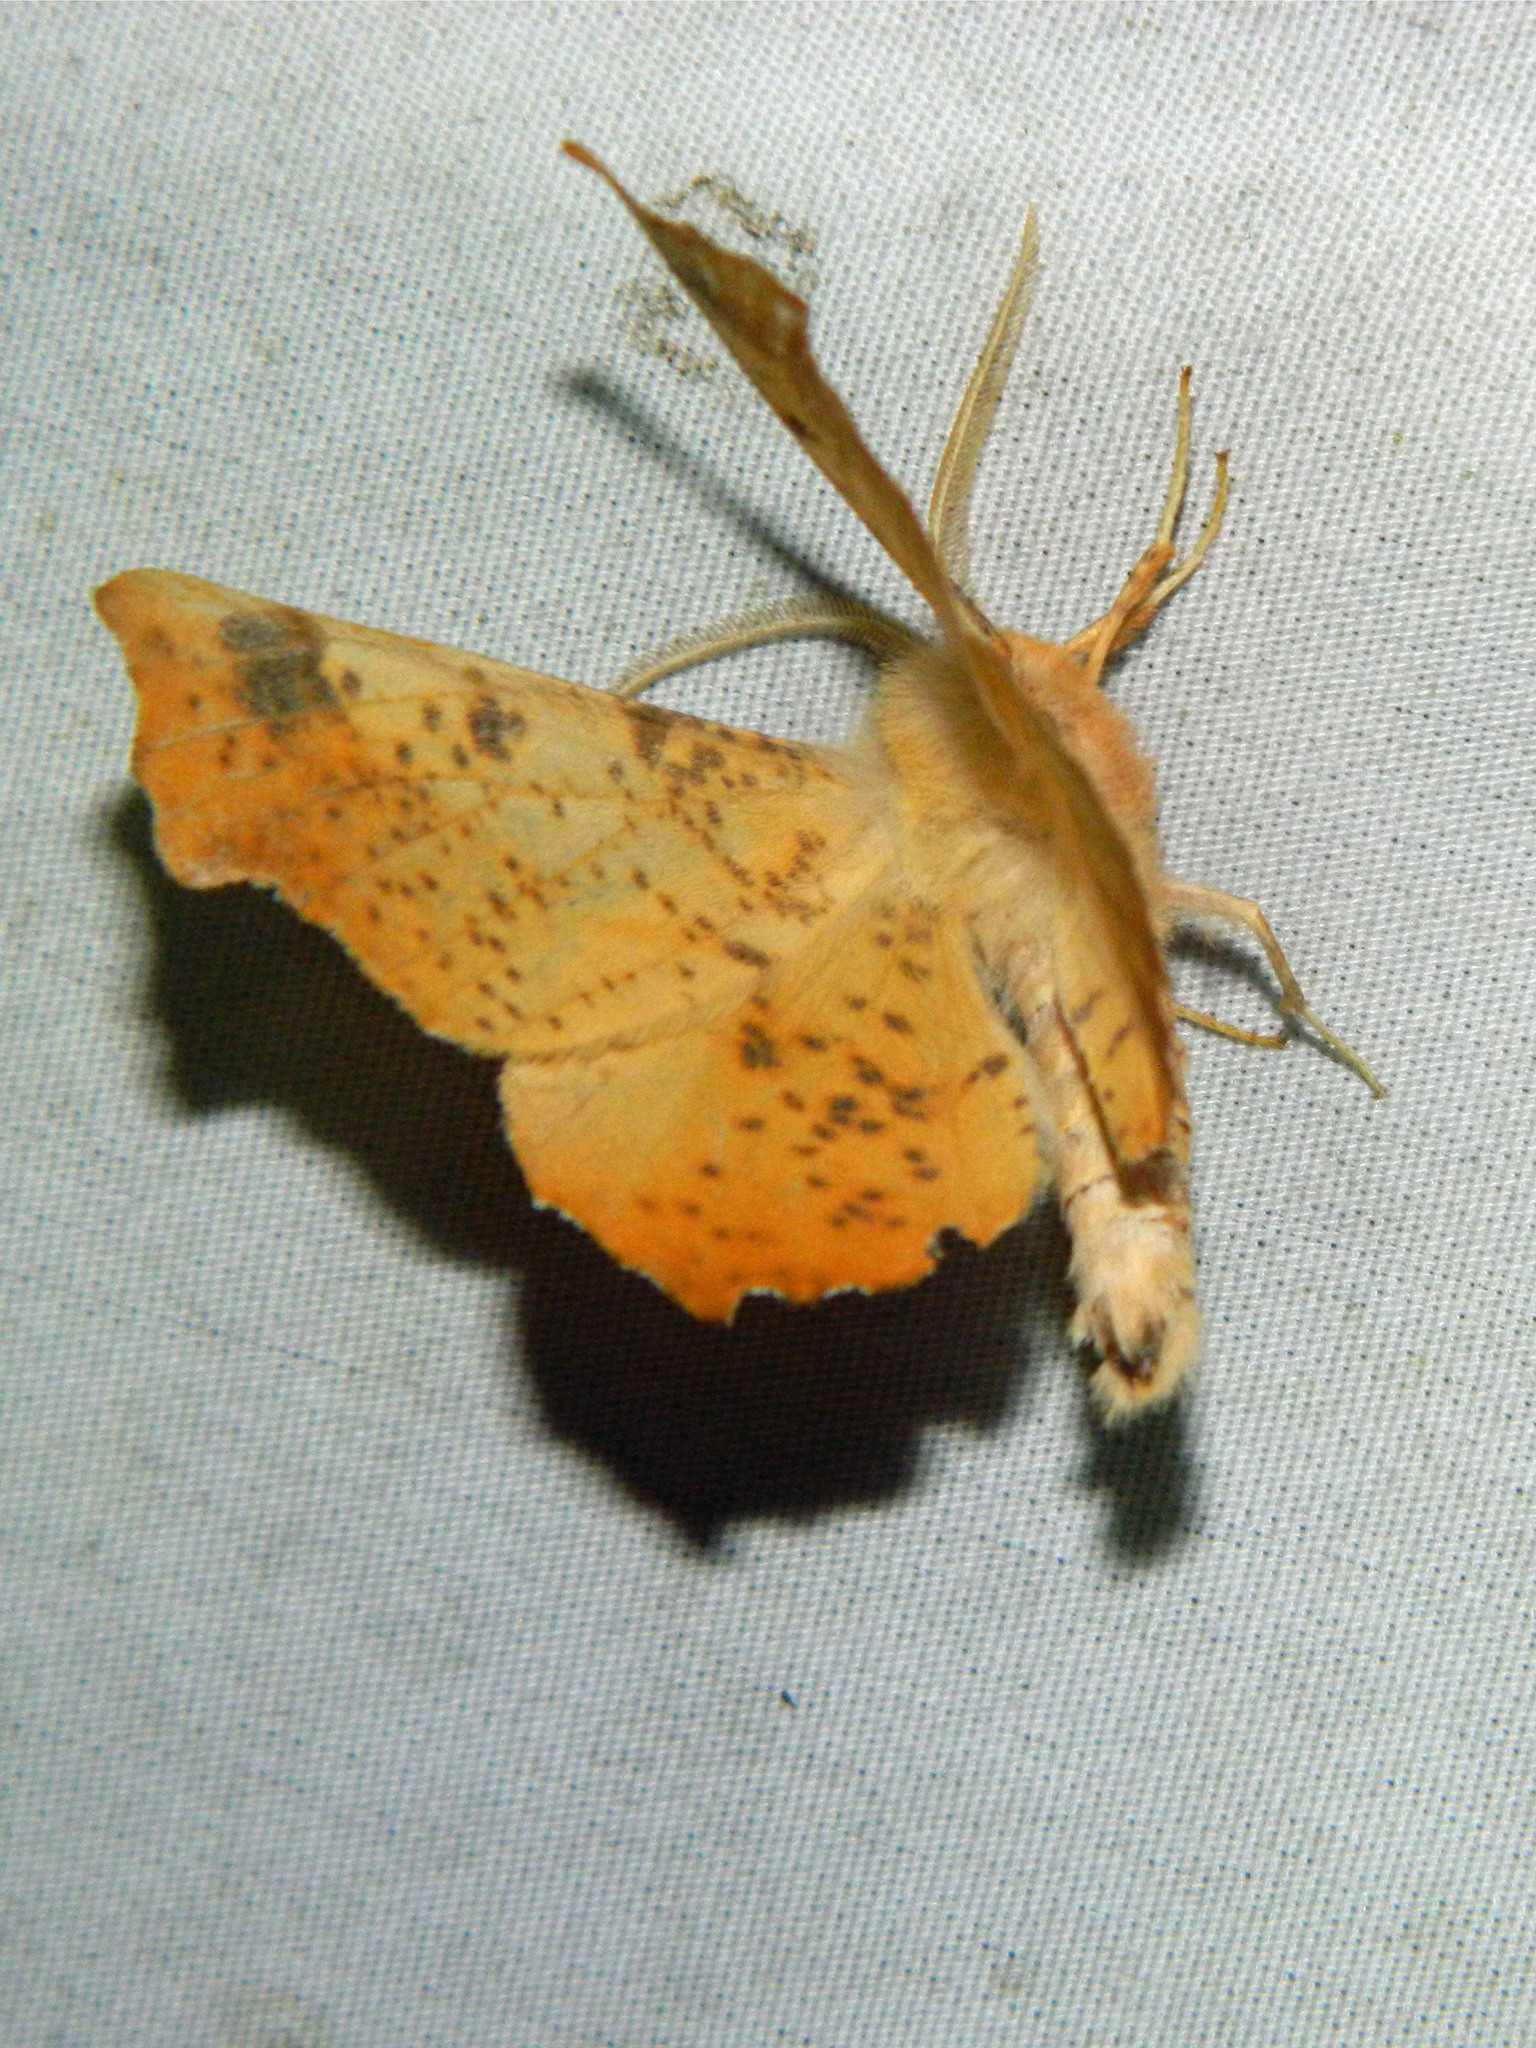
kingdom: Animalia
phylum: Arthropoda
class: Insecta
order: Lepidoptera
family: Geometridae
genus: Ennomos
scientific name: Ennomos magnaria
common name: Maple spanworm
